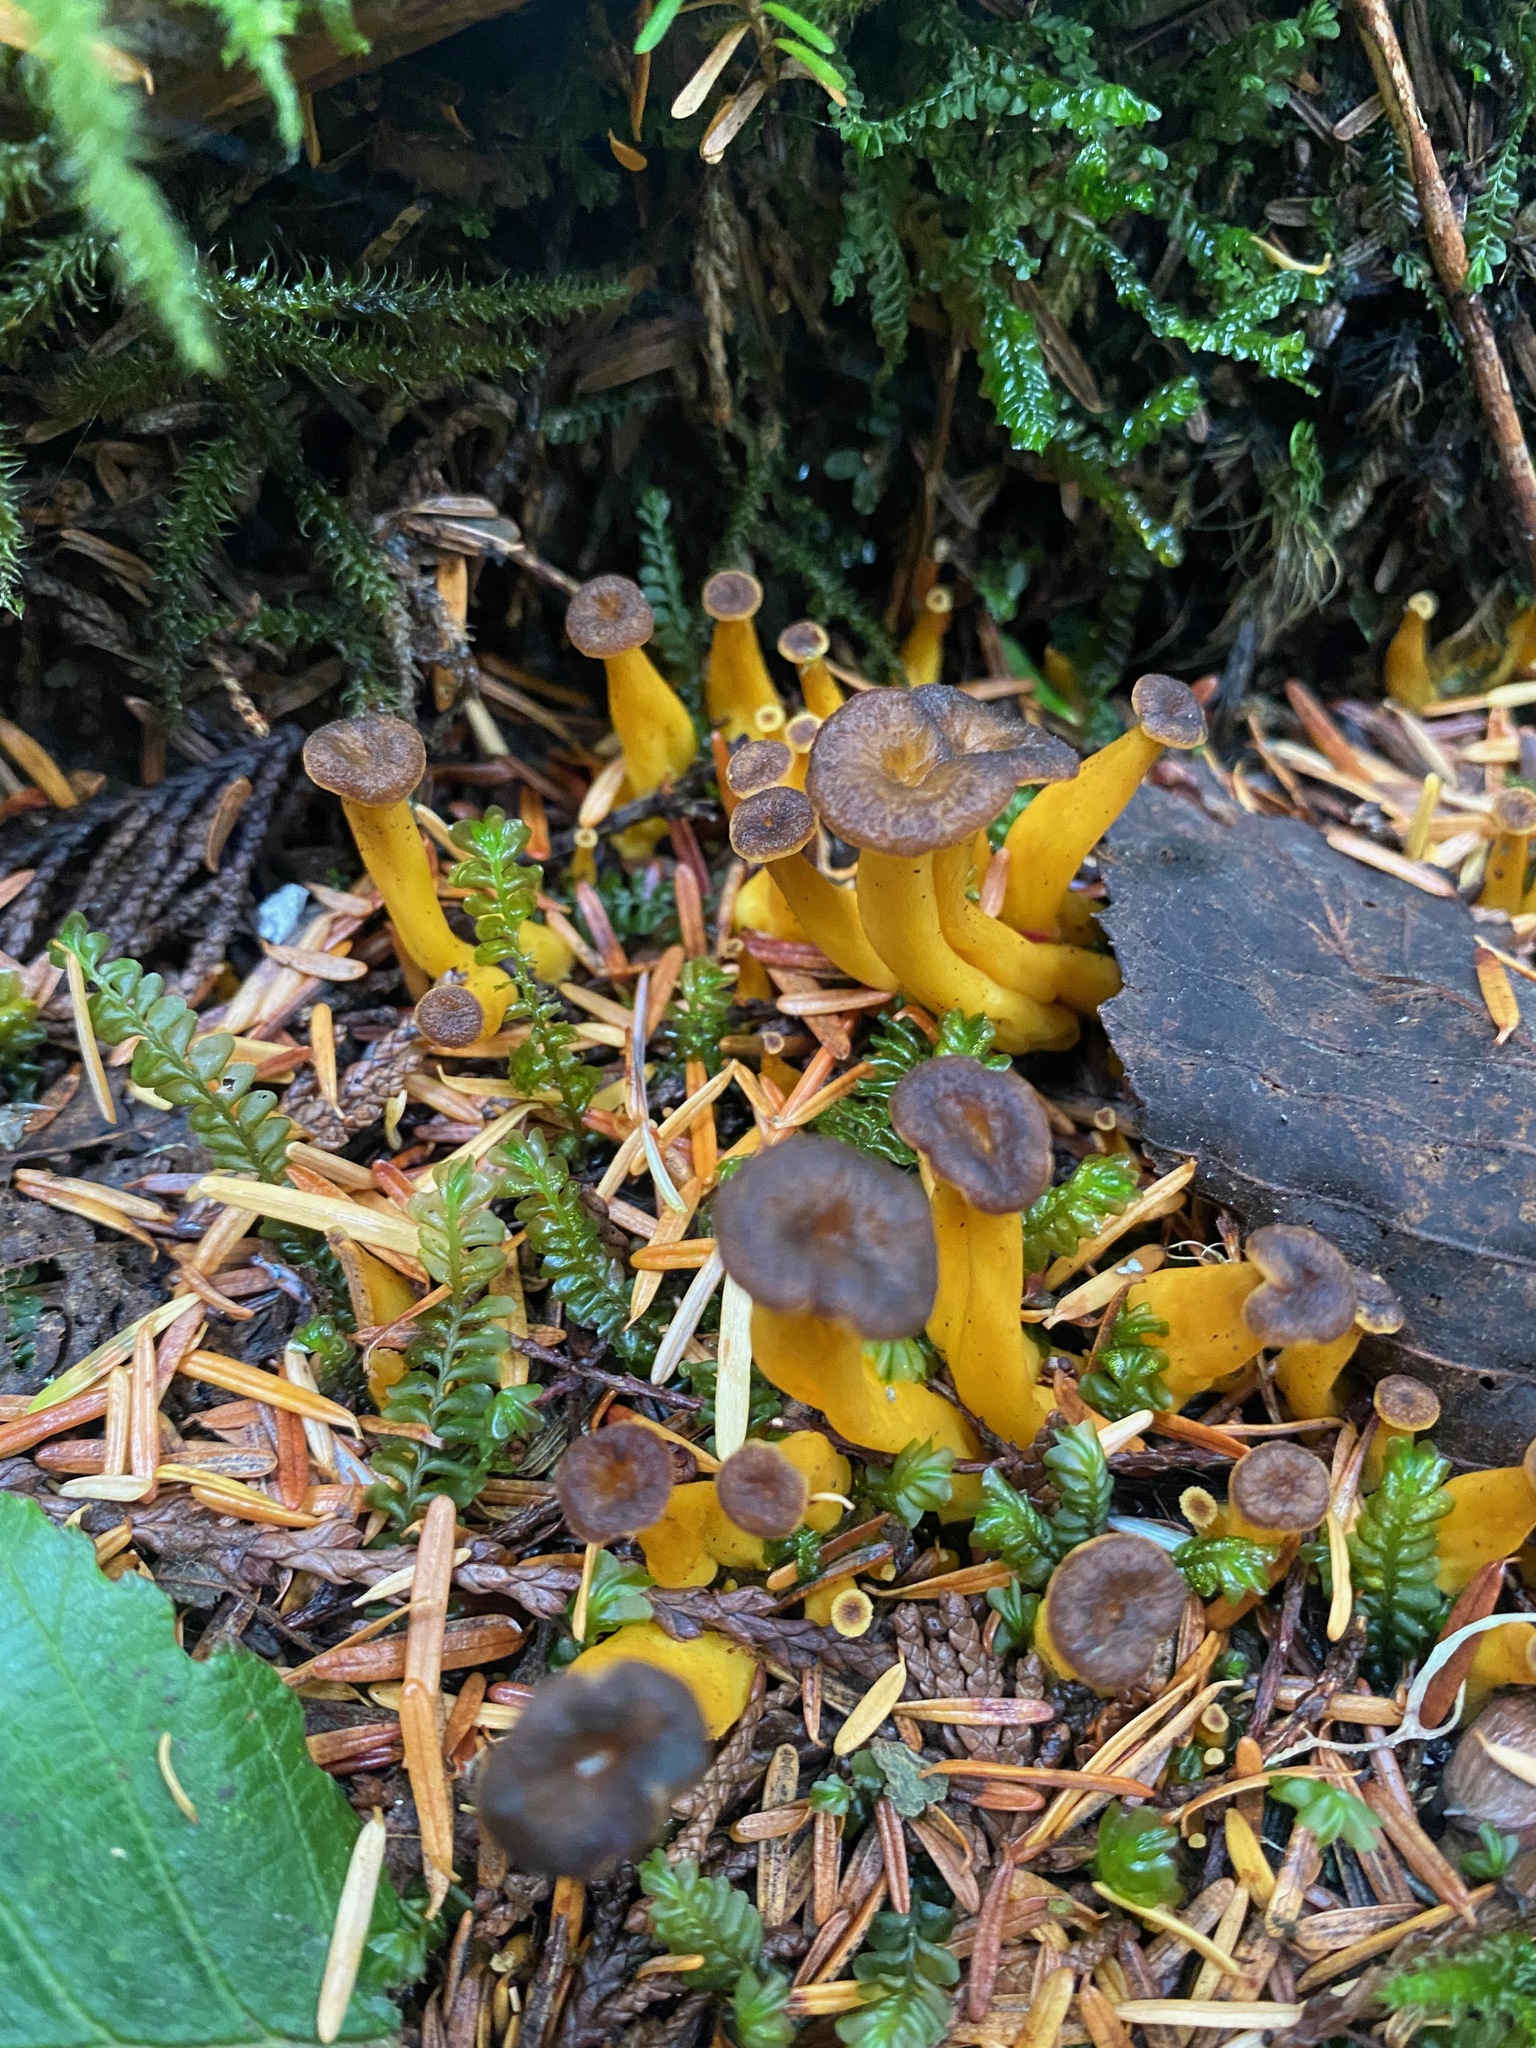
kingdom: Fungi
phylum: Basidiomycota
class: Agaricomycetes
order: Cantharellales
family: Hydnaceae
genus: Craterellus
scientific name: Craterellus tubaeformis
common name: Yellowfoot
